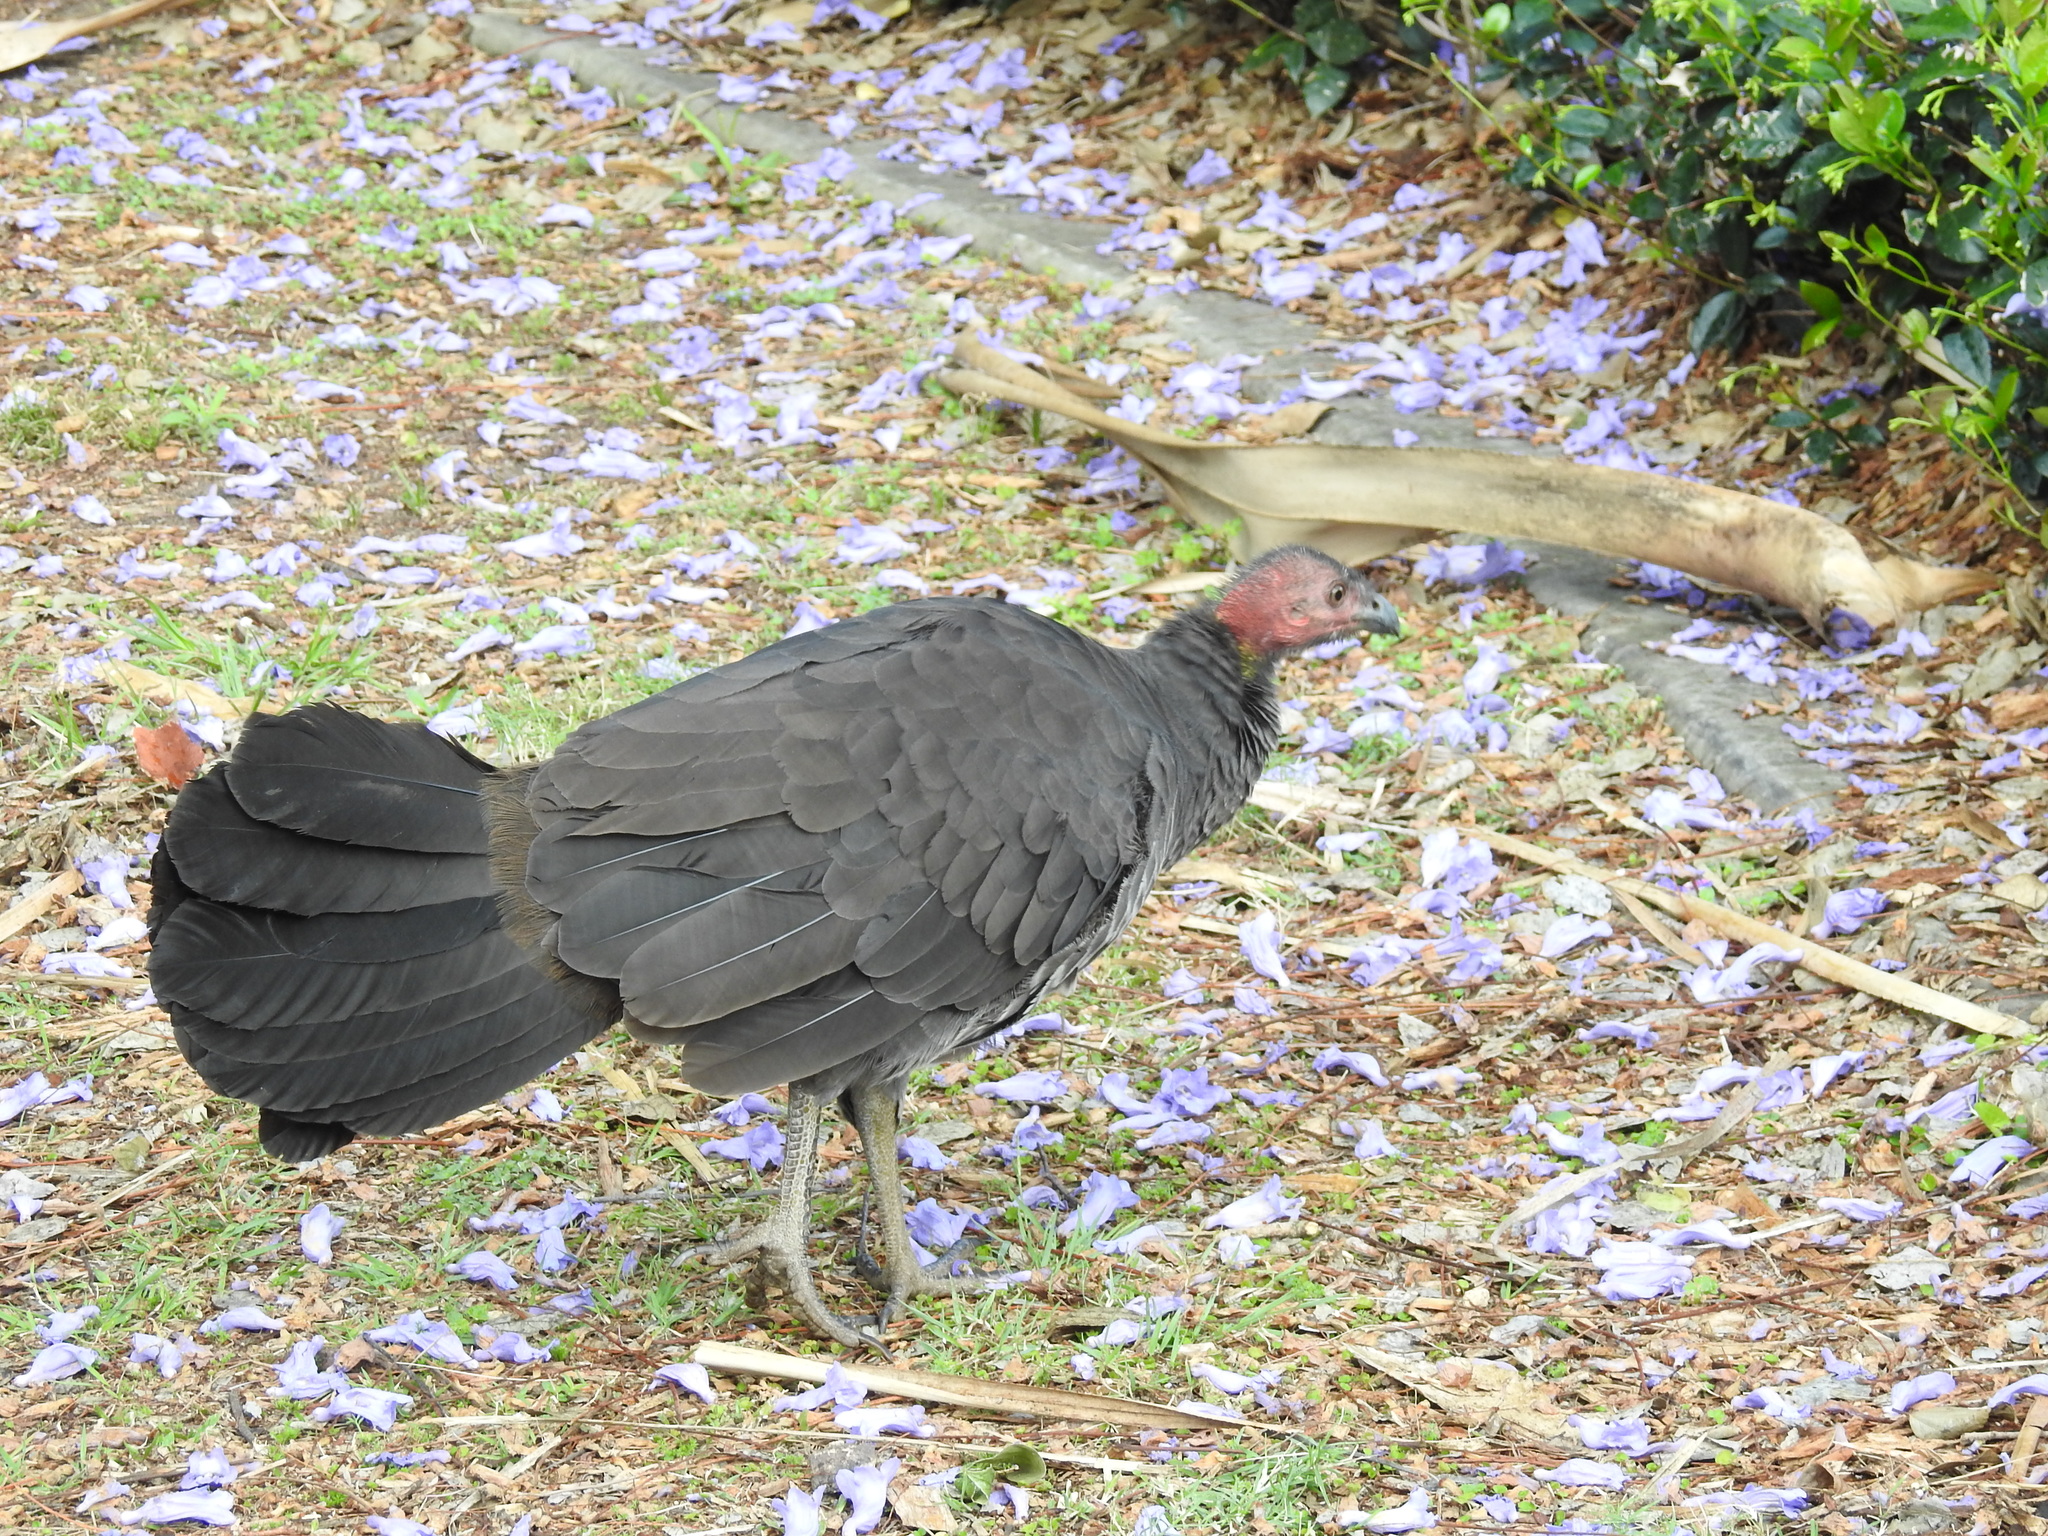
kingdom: Animalia
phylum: Chordata
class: Aves
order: Galliformes
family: Megapodiidae
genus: Alectura
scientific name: Alectura lathami
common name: Australian brushturkey
